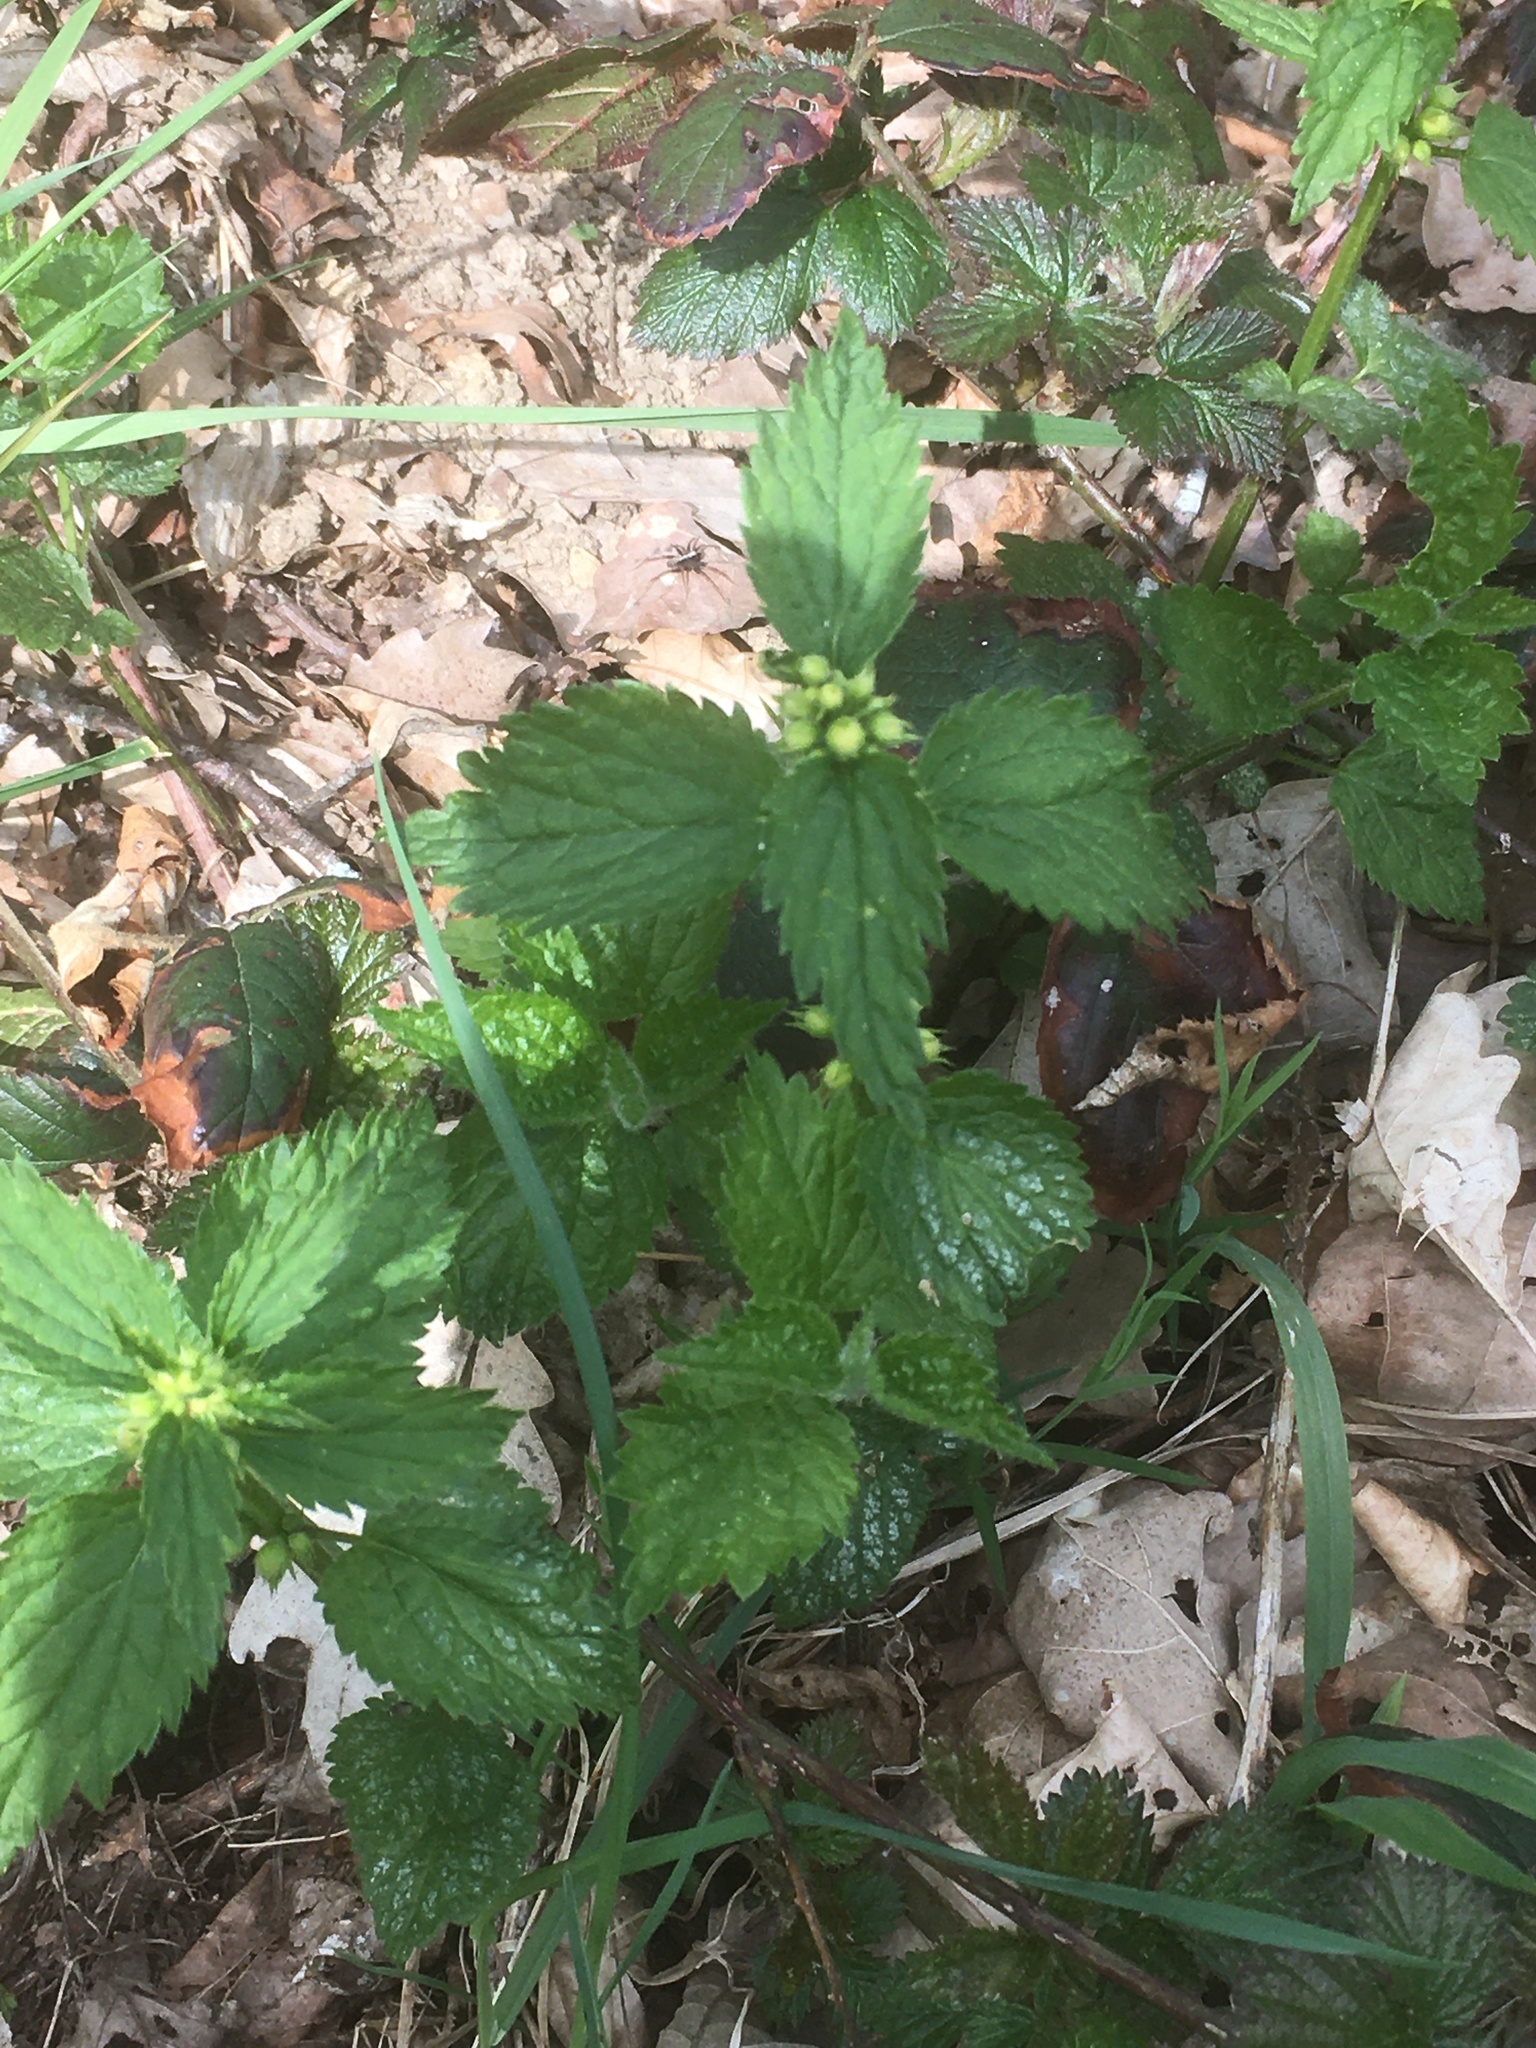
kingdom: Plantae
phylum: Tracheophyta
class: Magnoliopsida
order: Lamiales
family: Lamiaceae
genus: Lamium
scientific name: Lamium galeobdolon
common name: Yellow archangel
